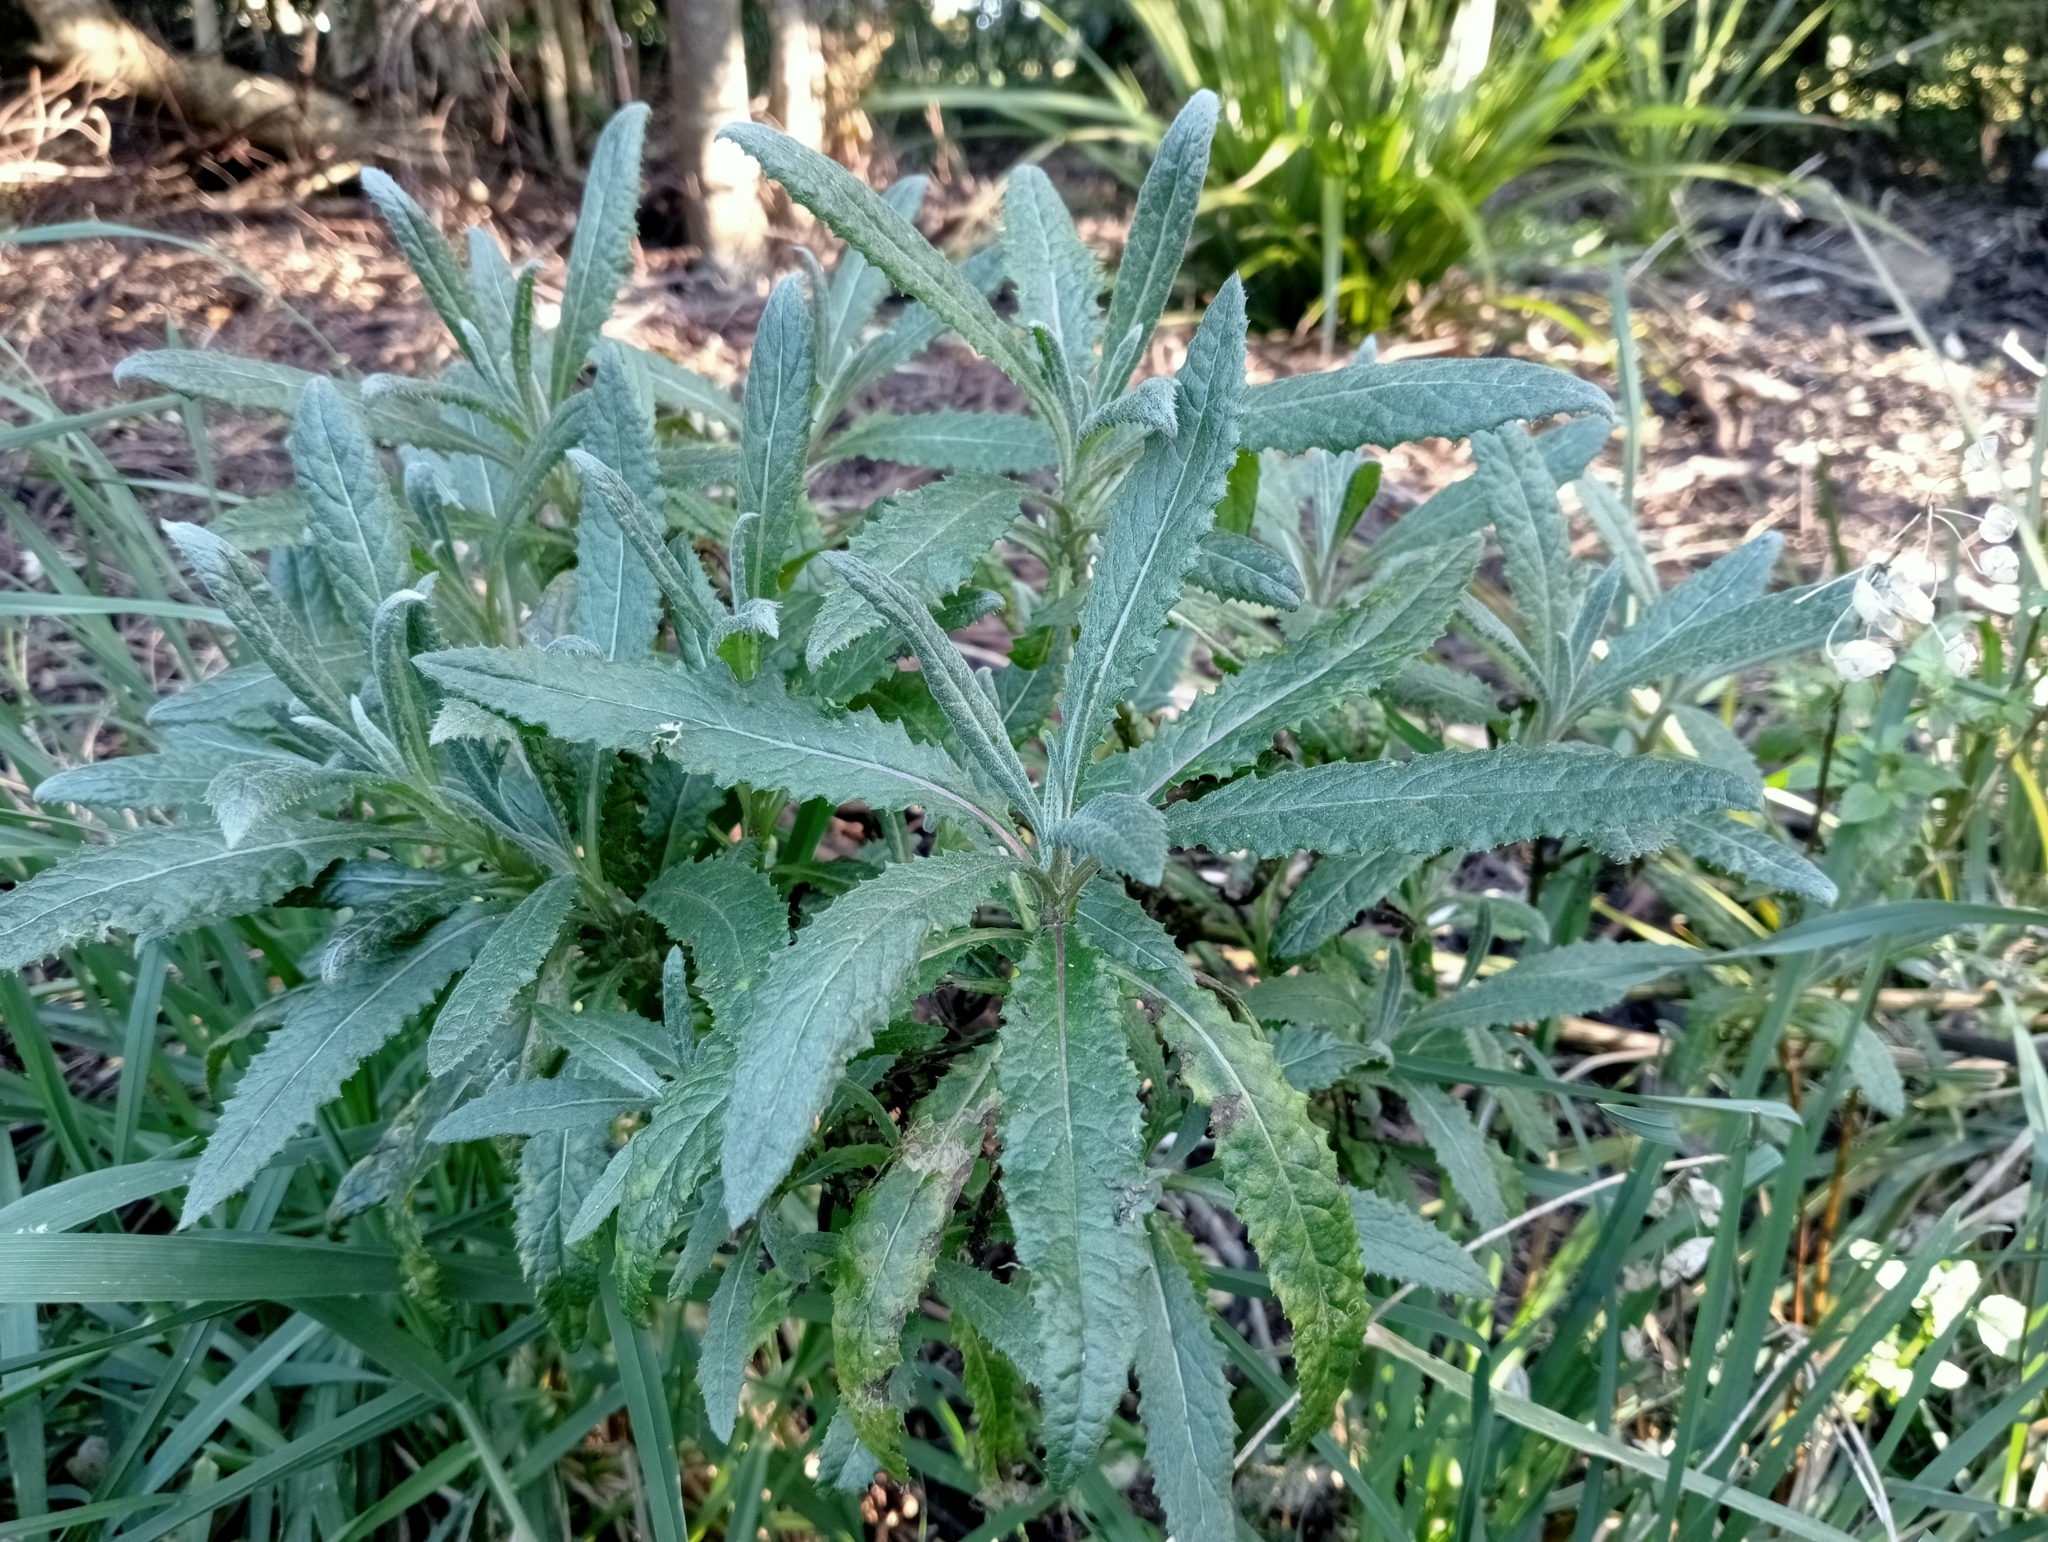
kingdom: Plantae
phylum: Tracheophyta
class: Magnoliopsida
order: Asterales
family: Asteraceae
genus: Senecio
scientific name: Senecio minimus
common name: Toothed fireweed
